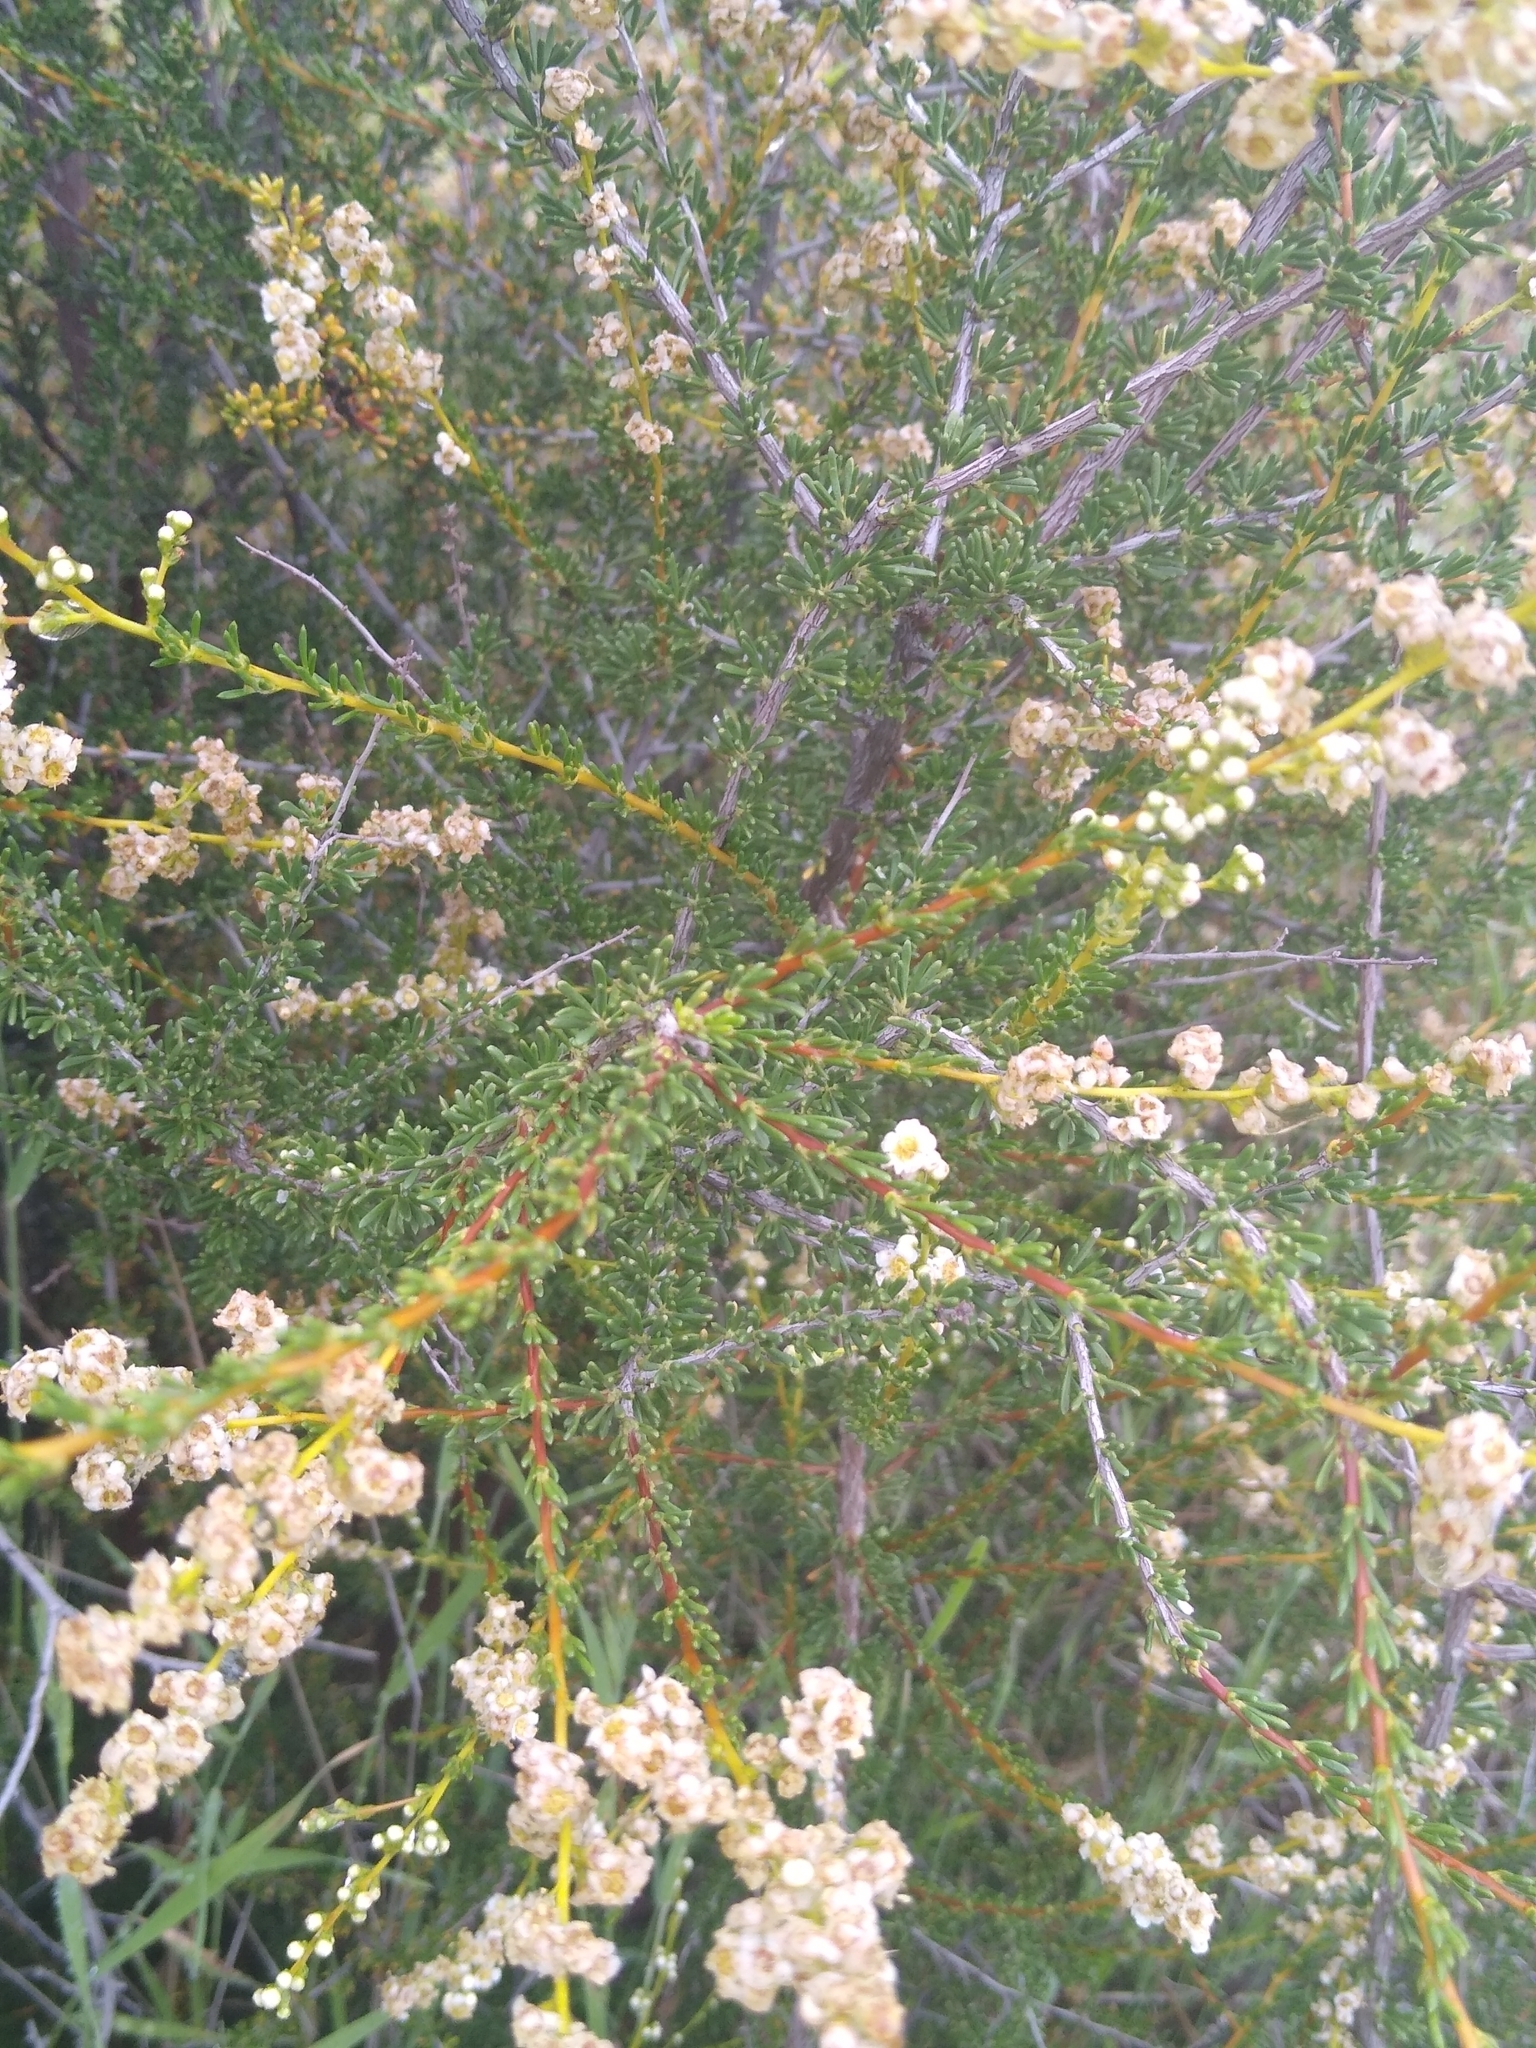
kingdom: Plantae
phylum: Tracheophyta
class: Magnoliopsida
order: Rosales
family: Rosaceae
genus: Adenostoma
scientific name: Adenostoma fasciculatum
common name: Chamise
